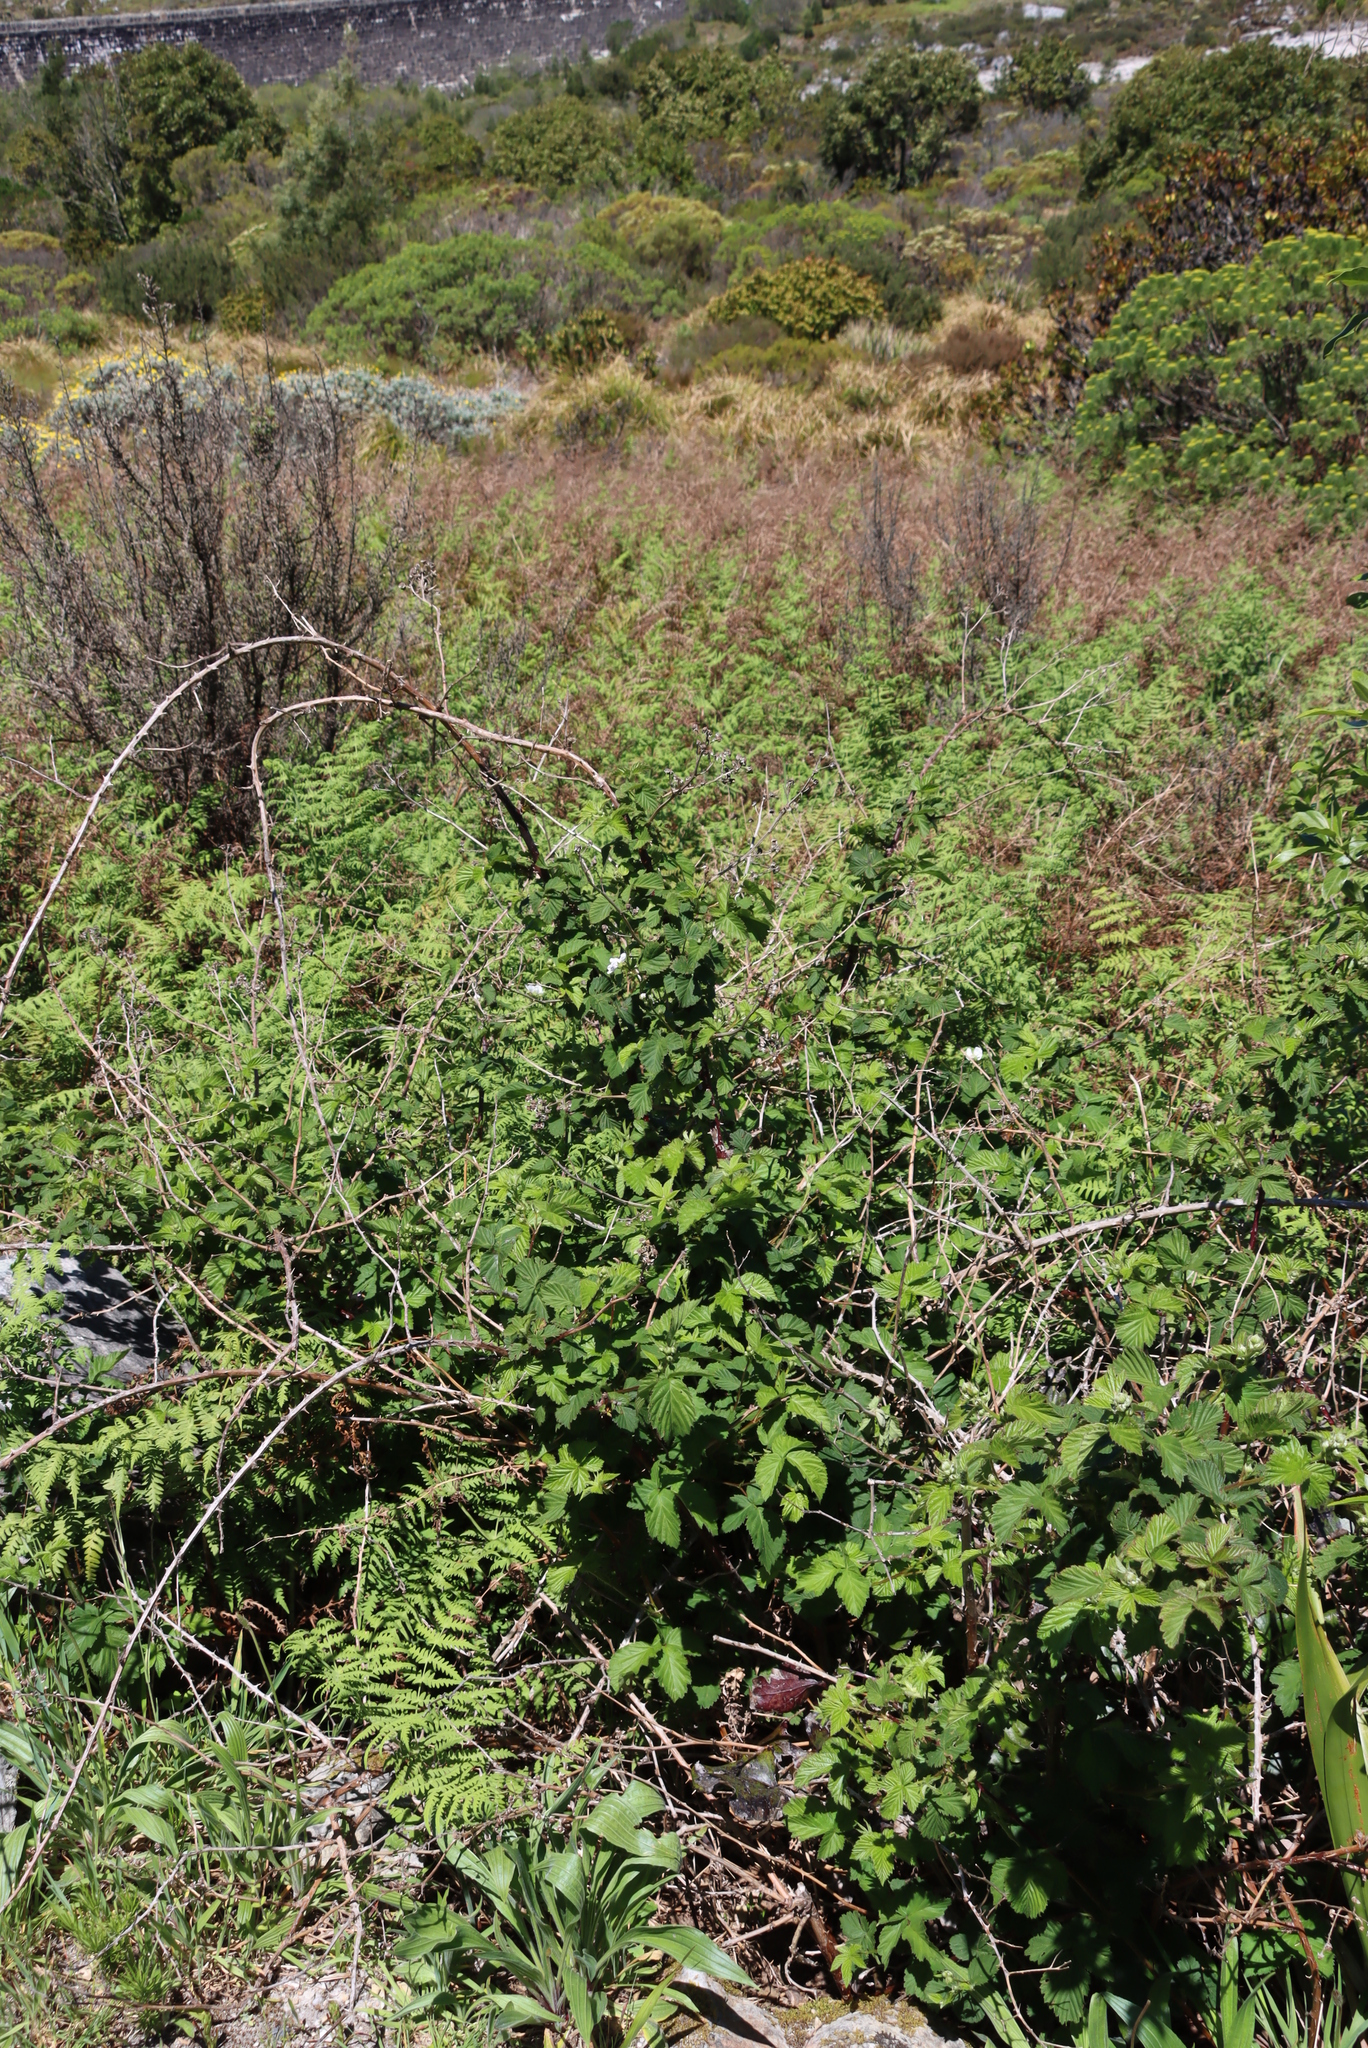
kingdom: Plantae
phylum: Tracheophyta
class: Magnoliopsida
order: Rosales
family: Rosaceae
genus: Rubus
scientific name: Rubus affinis
